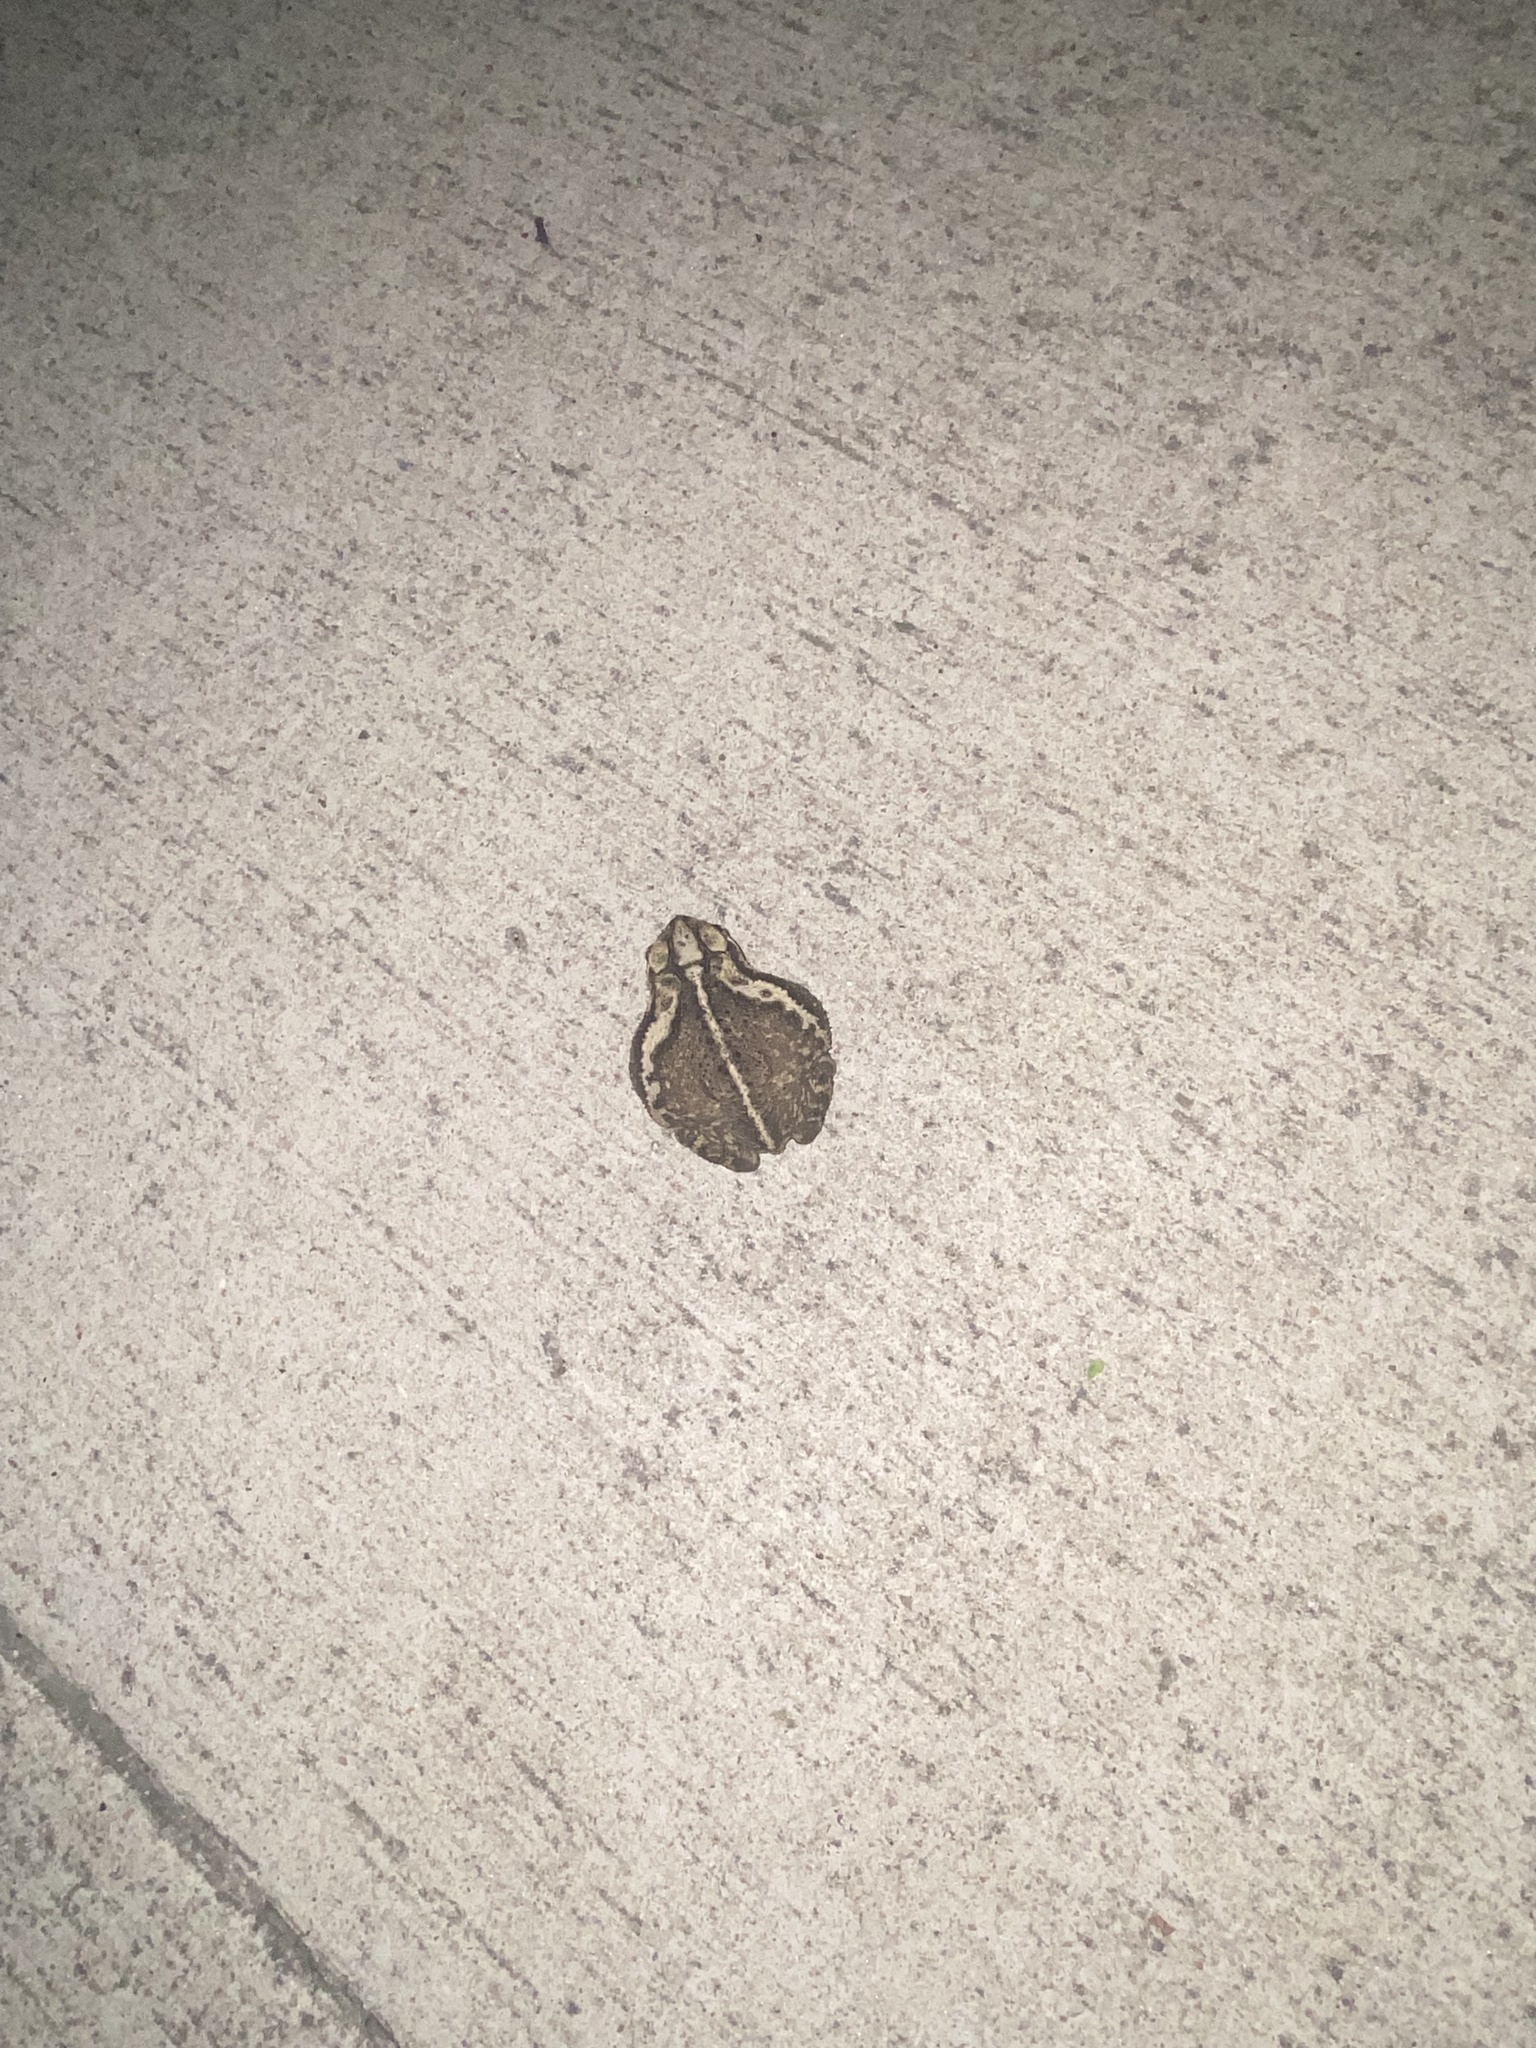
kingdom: Animalia
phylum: Chordata
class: Amphibia
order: Anura
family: Bufonidae
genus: Incilius
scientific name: Incilius nebulifer
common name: Gulf coast toad
